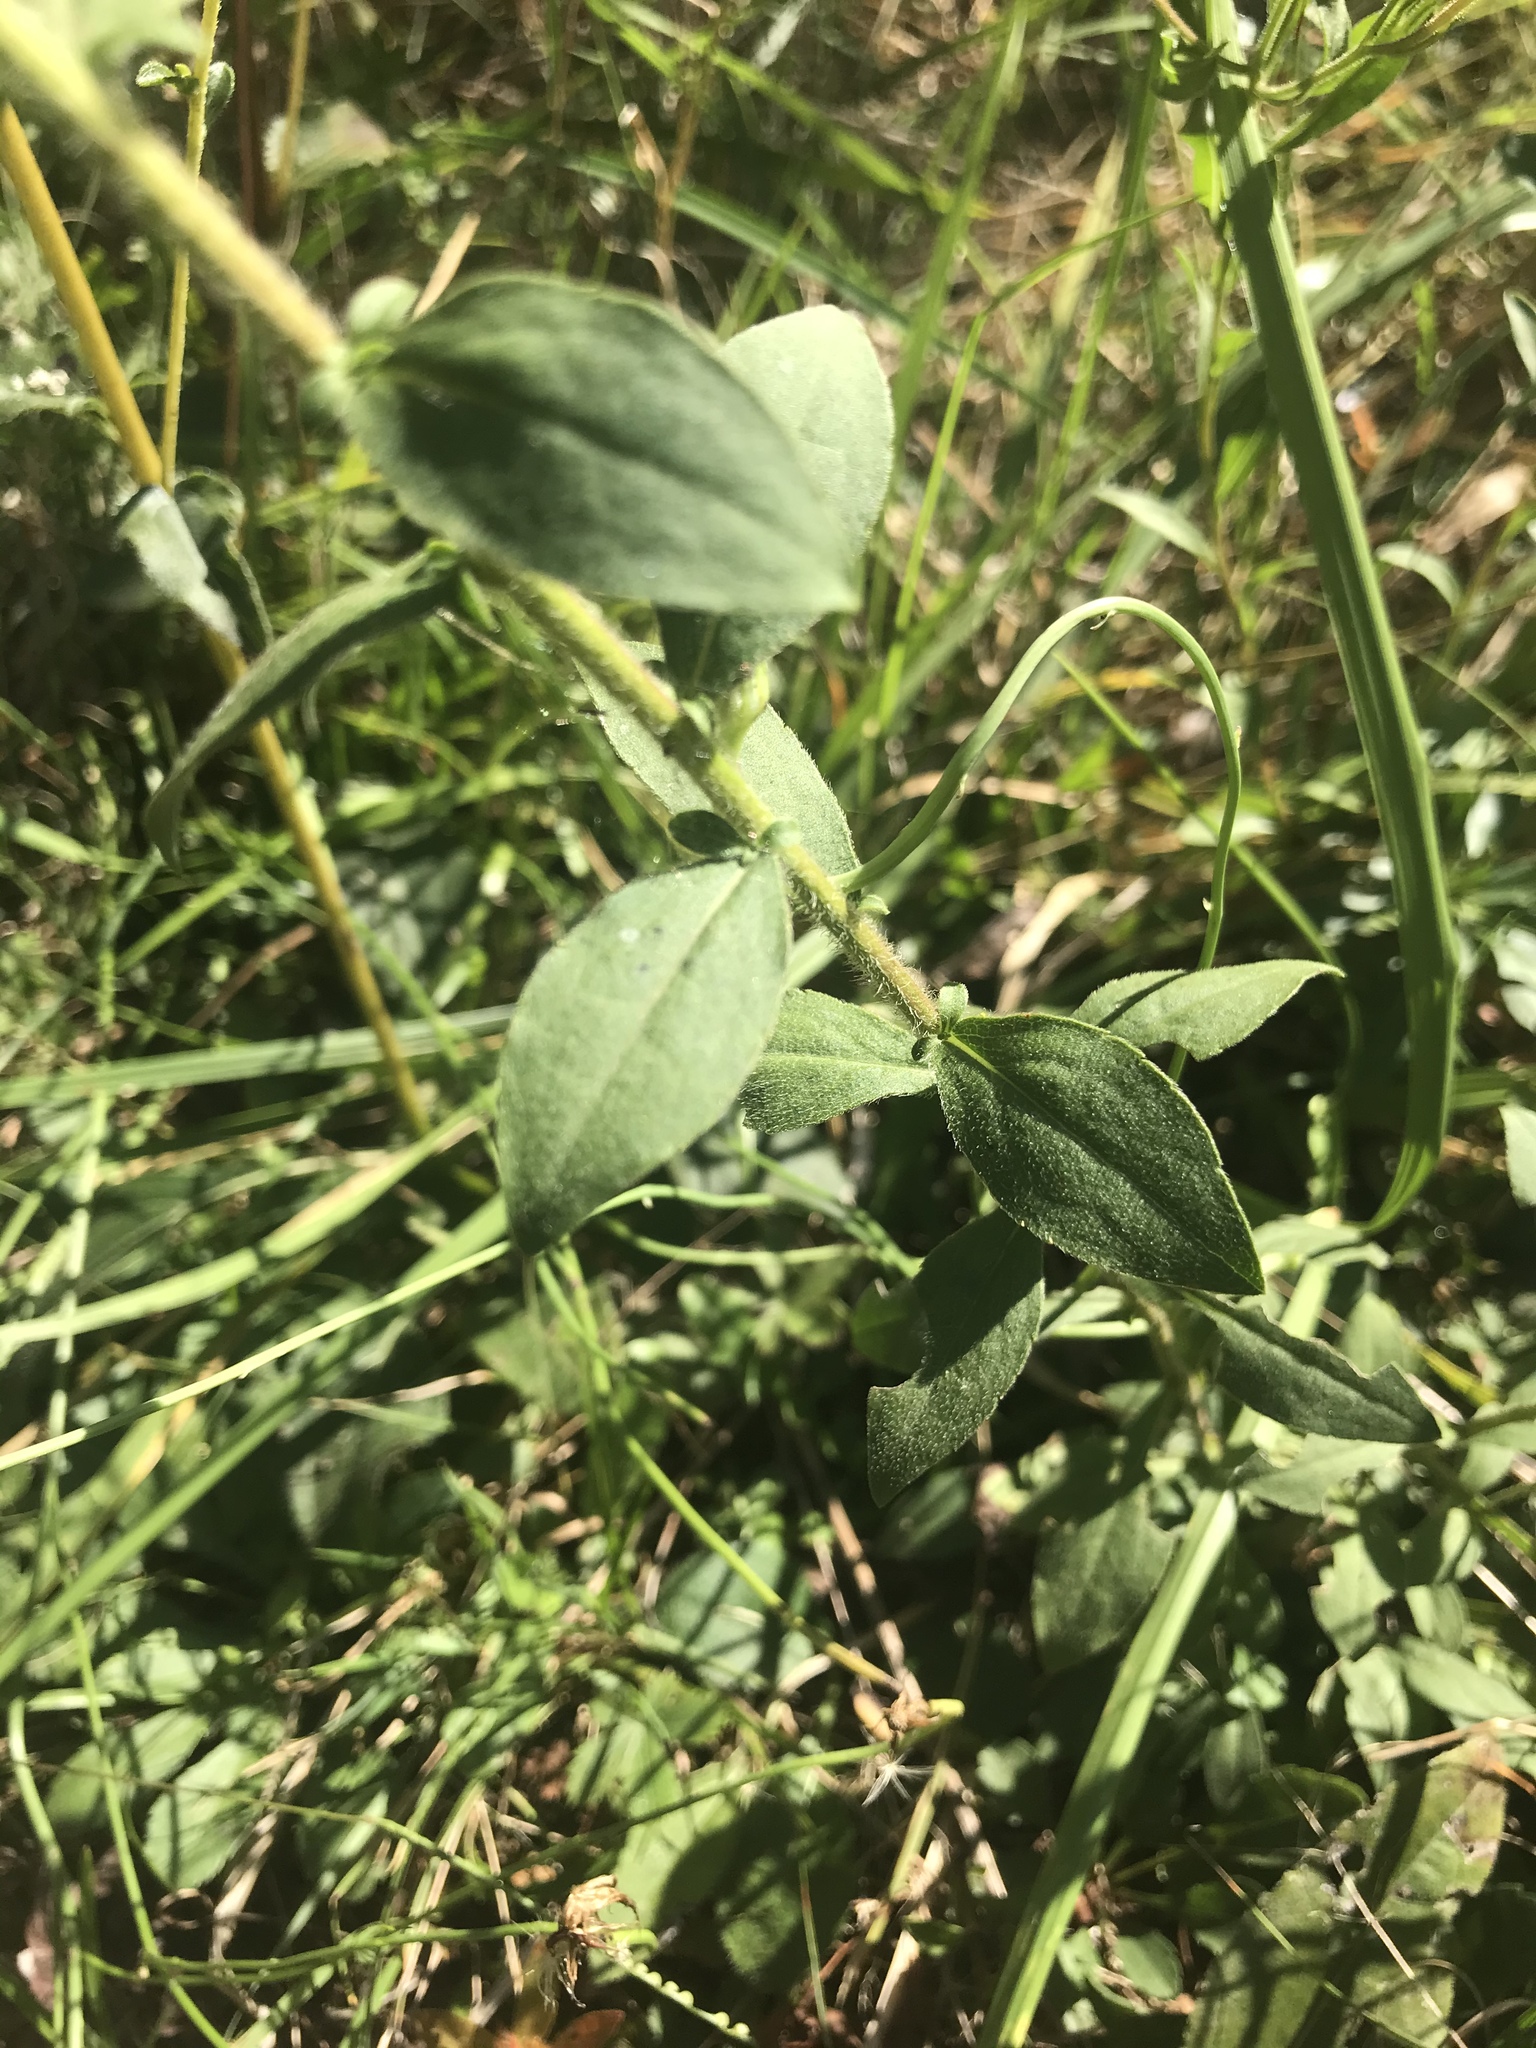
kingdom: Plantae
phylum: Tracheophyta
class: Magnoliopsida
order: Asterales
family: Asteraceae
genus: Helianthus
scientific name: Helianthus atrorubens
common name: Dark-eyed sunflower
